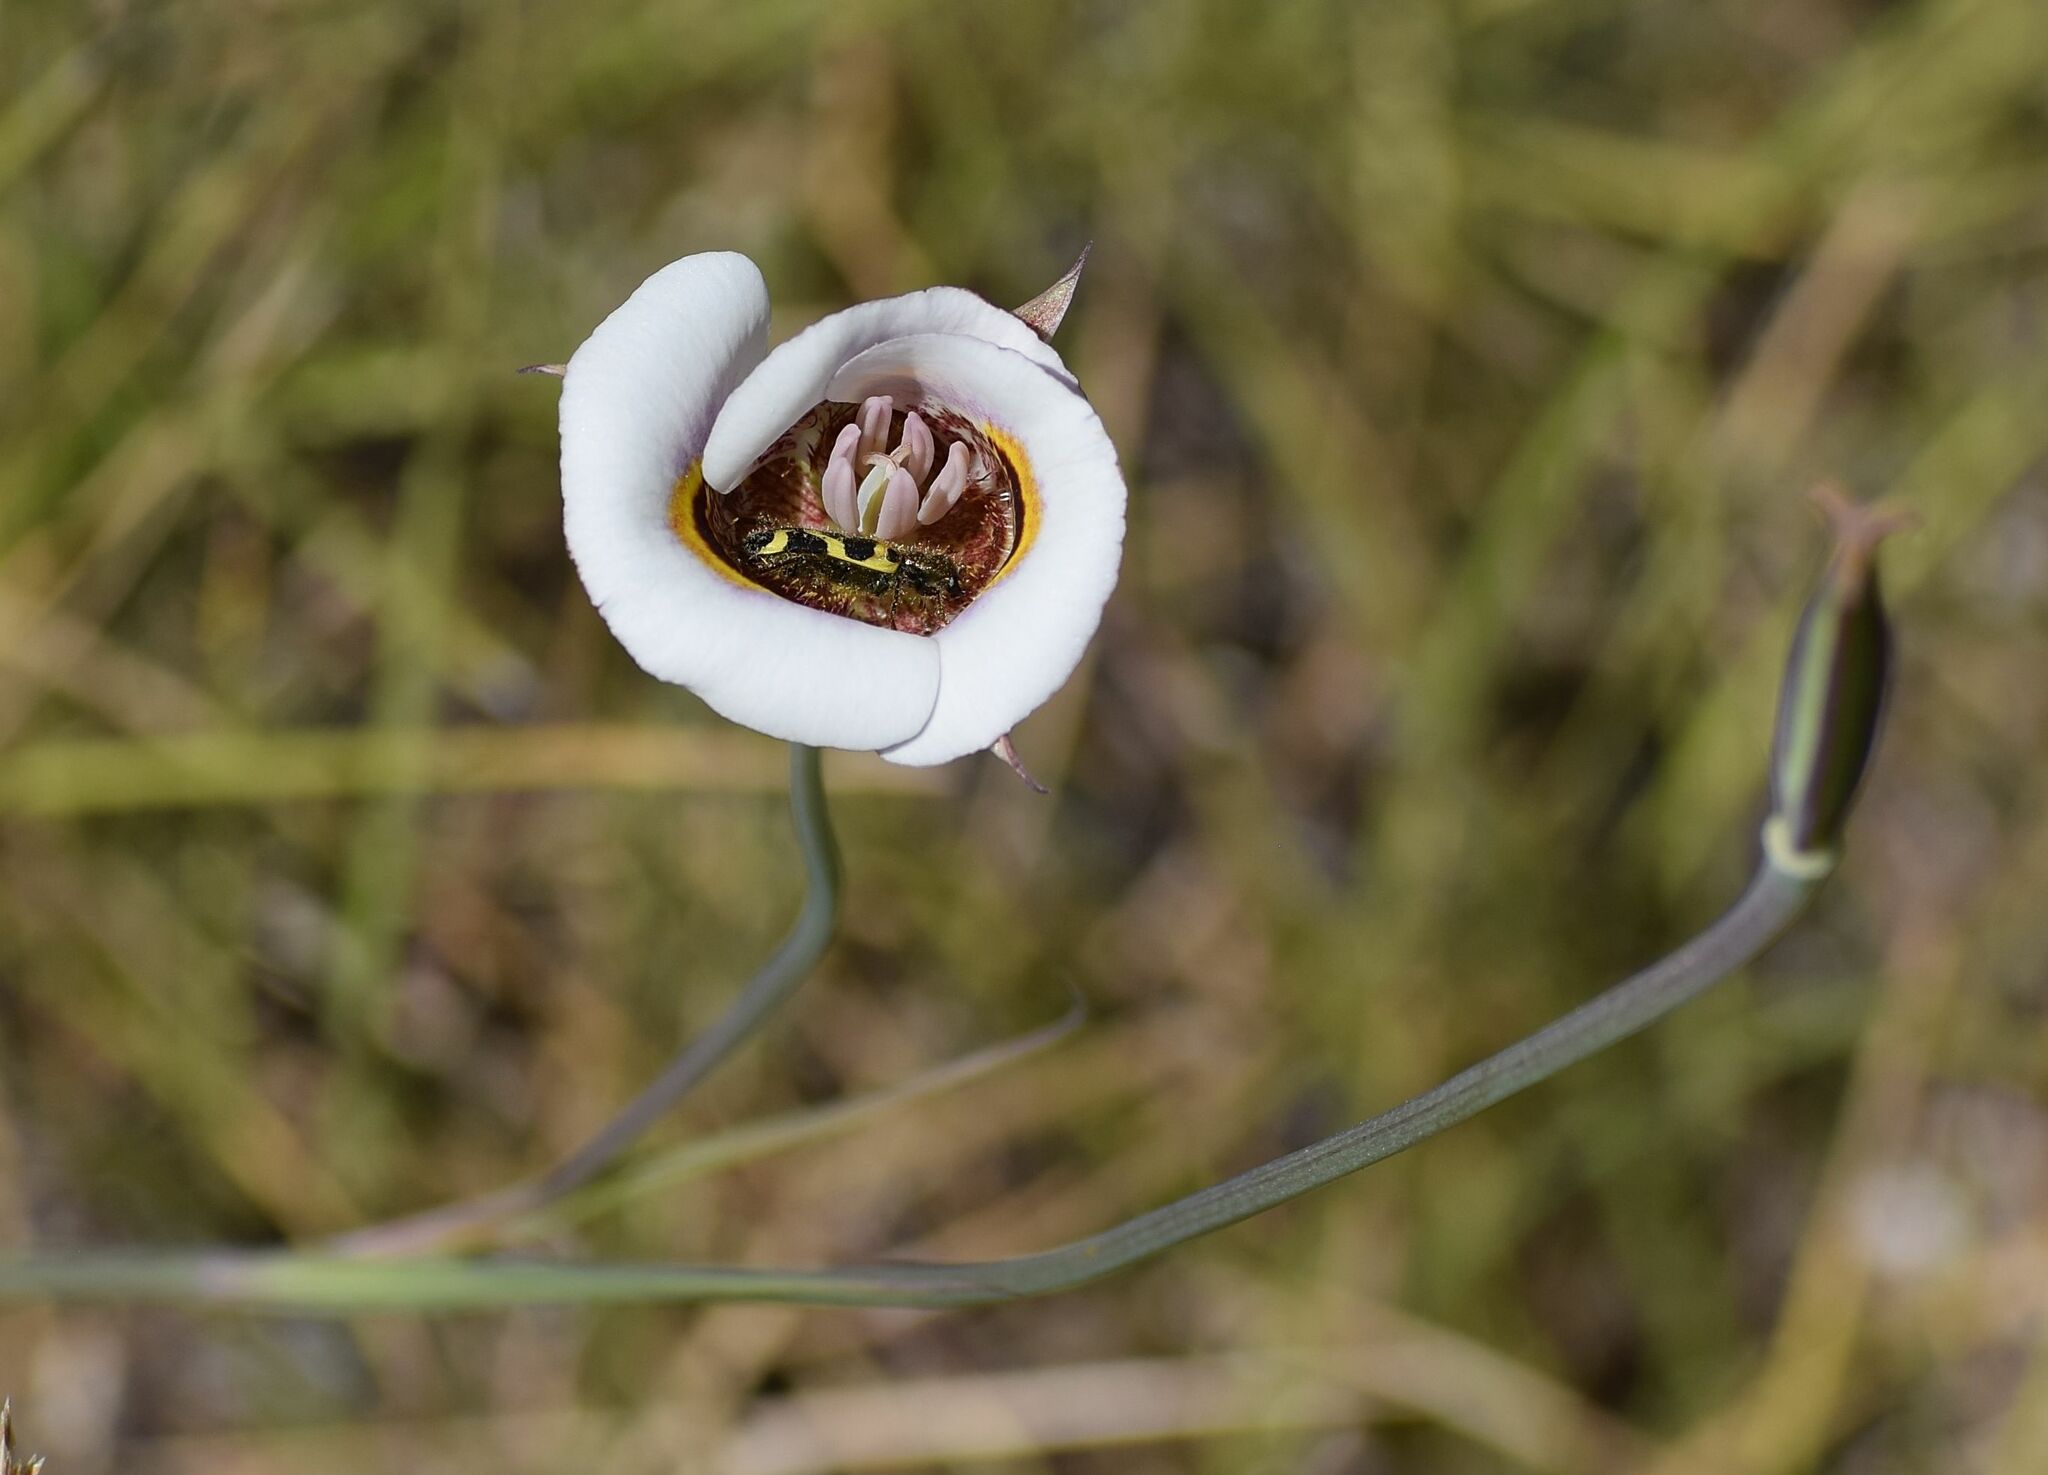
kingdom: Plantae
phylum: Tracheophyta
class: Liliopsida
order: Liliales
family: Liliaceae
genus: Calochortus
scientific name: Calochortus superbus
